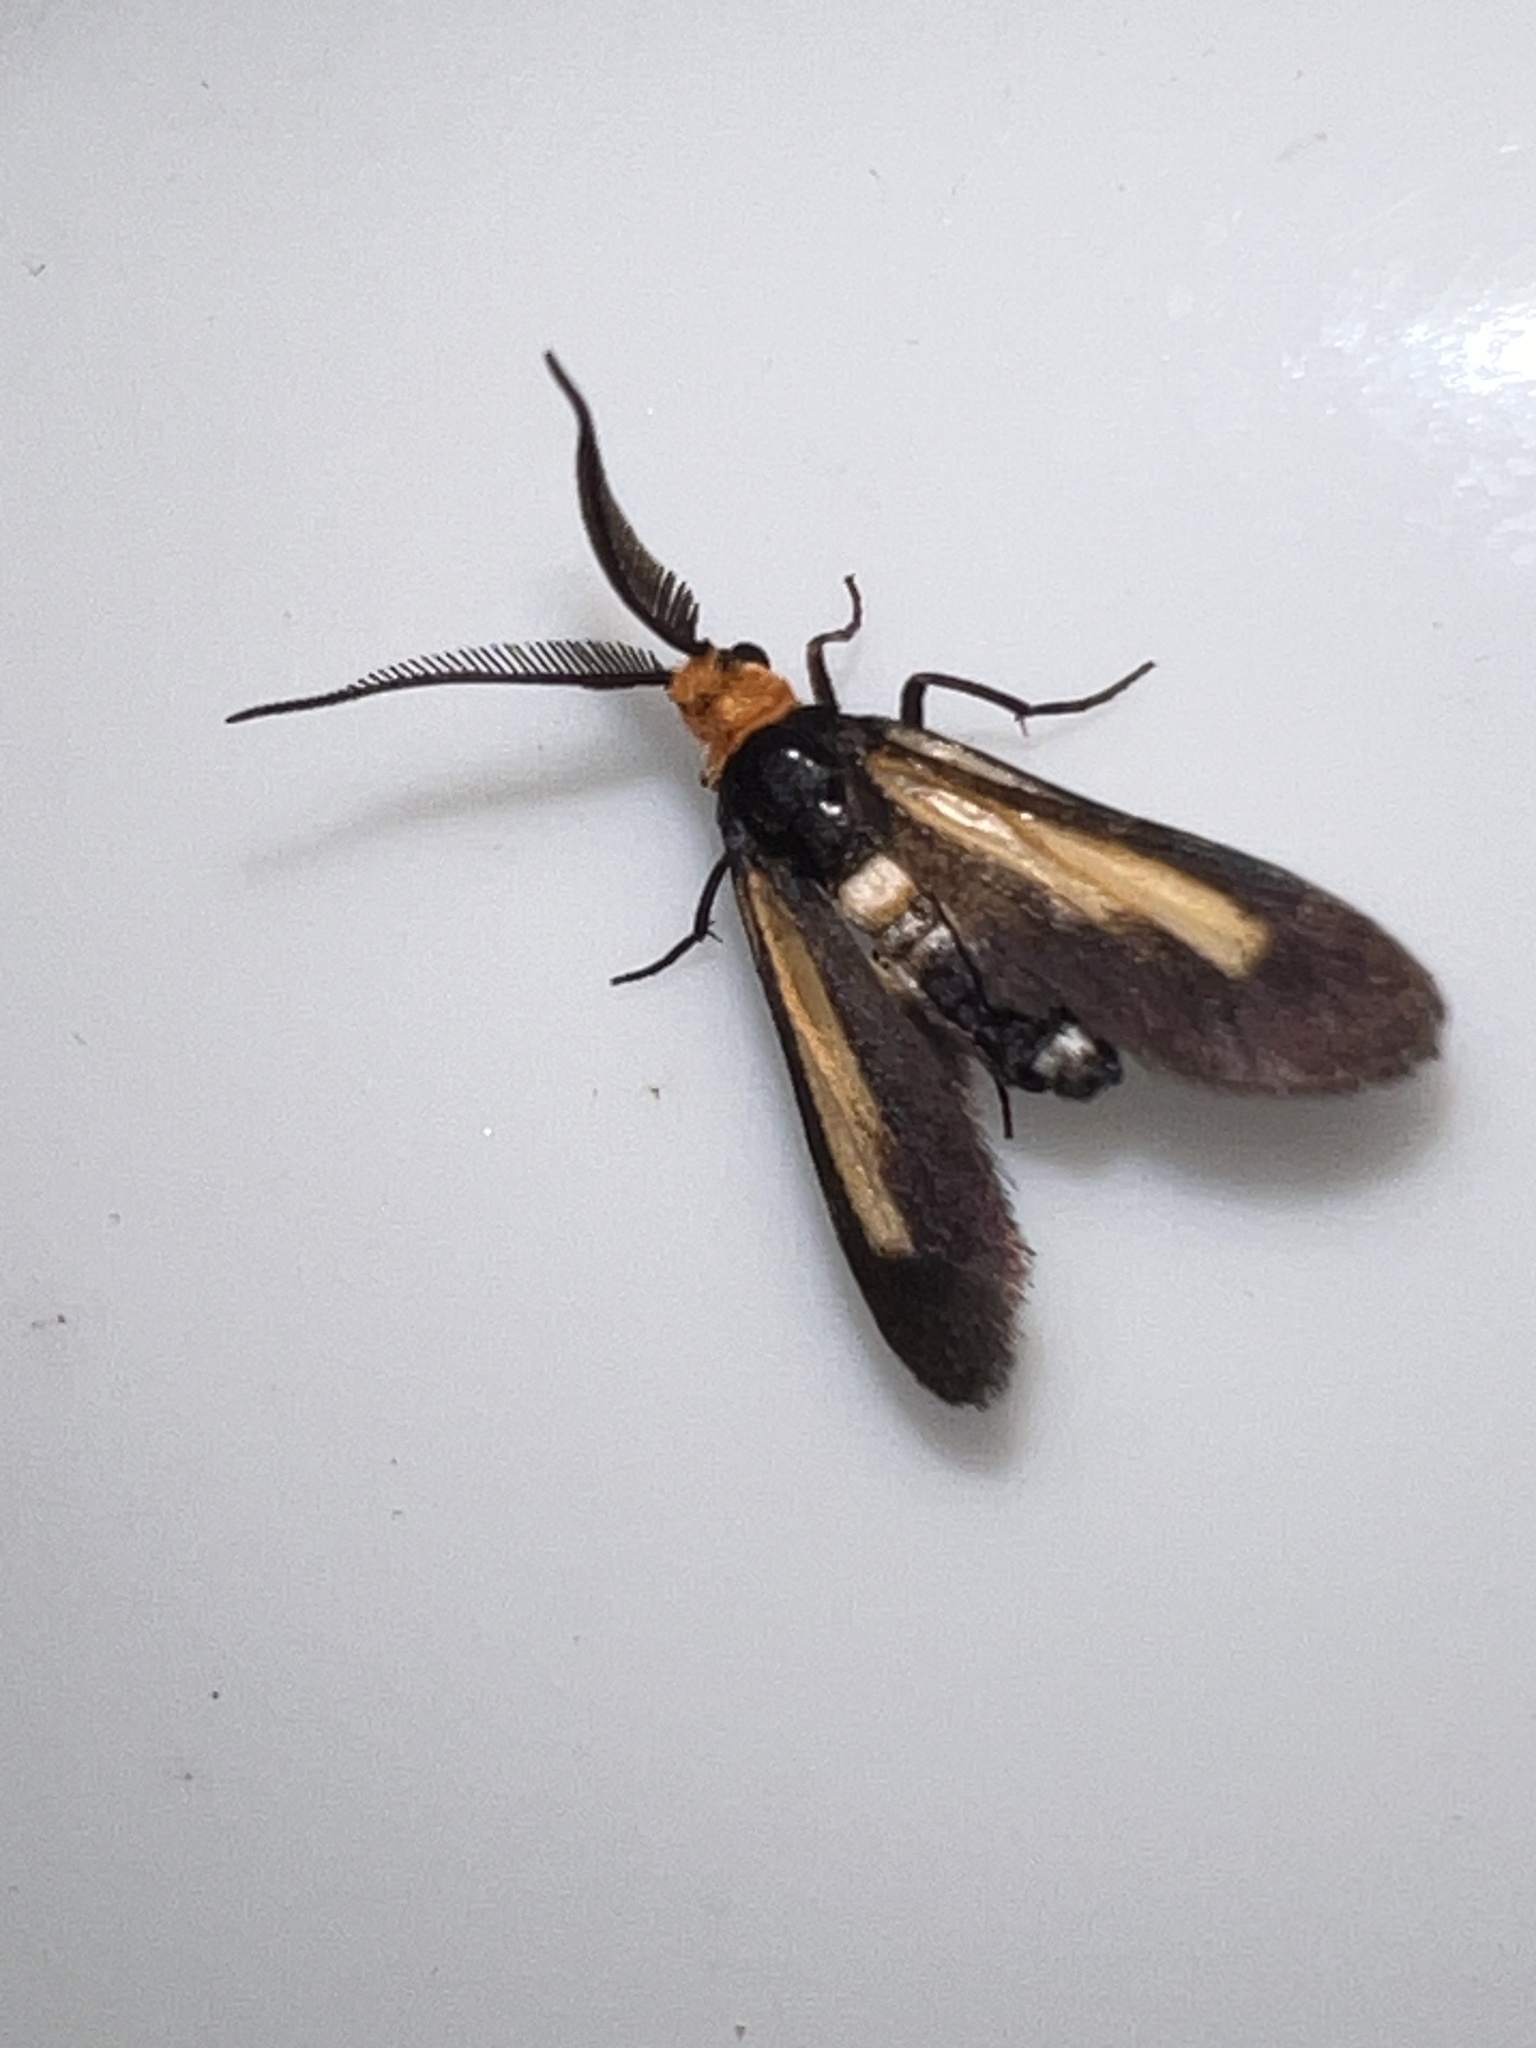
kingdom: Animalia
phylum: Arthropoda
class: Insecta
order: Lepidoptera
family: Zygaenidae
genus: Hestiochora
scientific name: Hestiochora xanthocoma
